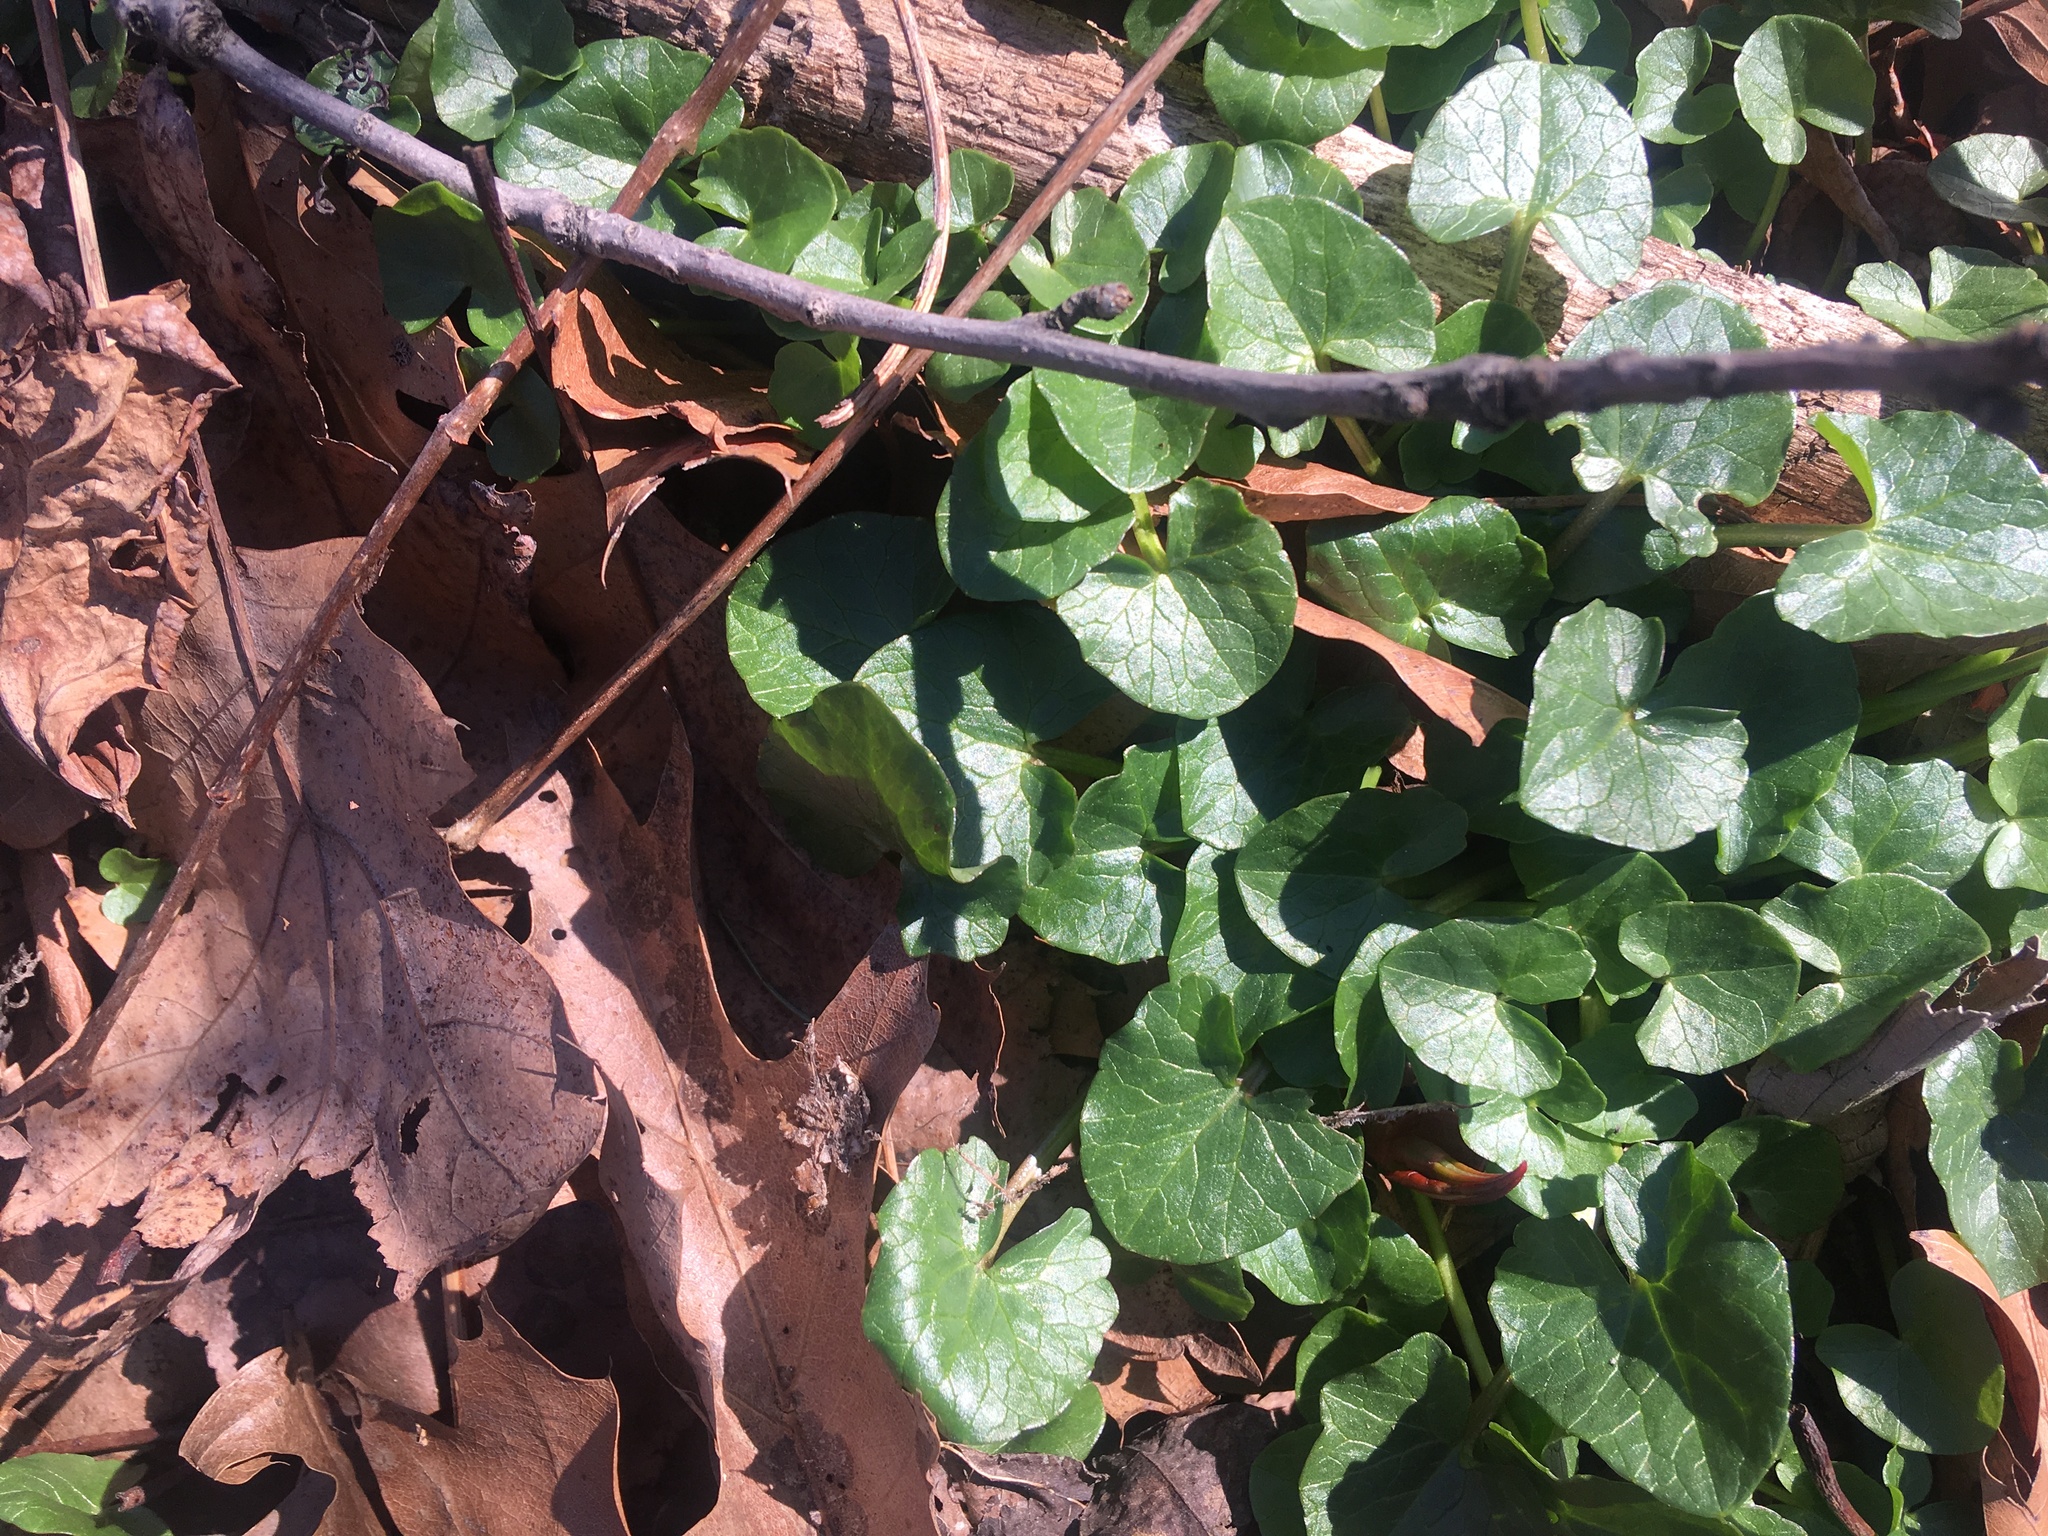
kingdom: Plantae
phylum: Tracheophyta
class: Magnoliopsida
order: Ranunculales
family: Ranunculaceae
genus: Ficaria
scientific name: Ficaria verna
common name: Lesser celandine
